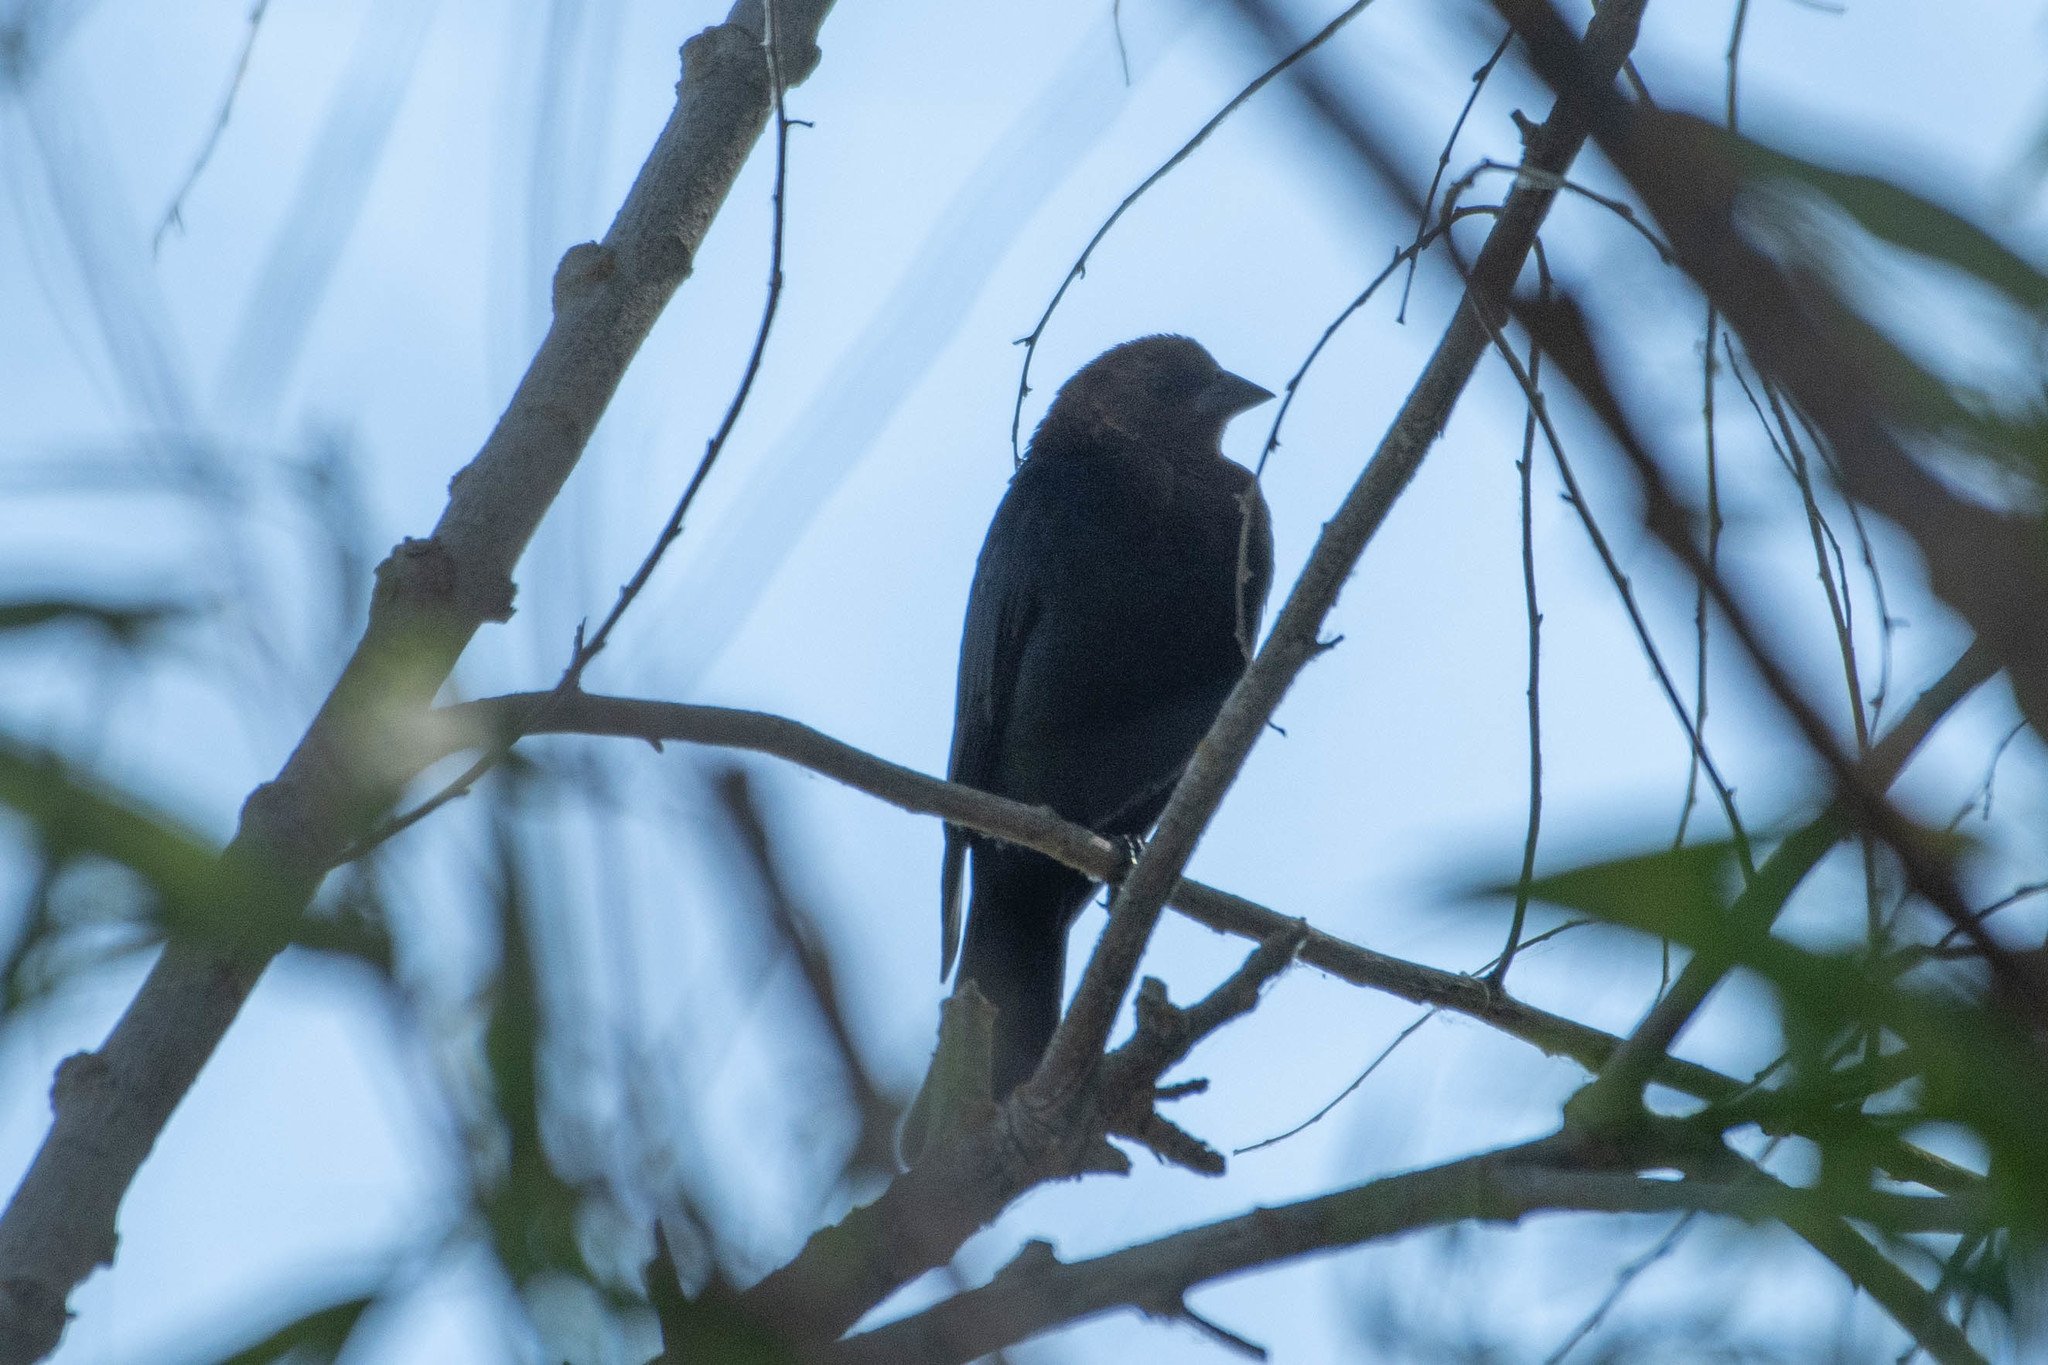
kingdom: Animalia
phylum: Chordata
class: Aves
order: Passeriformes
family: Icteridae
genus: Molothrus
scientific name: Molothrus ater
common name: Brown-headed cowbird
